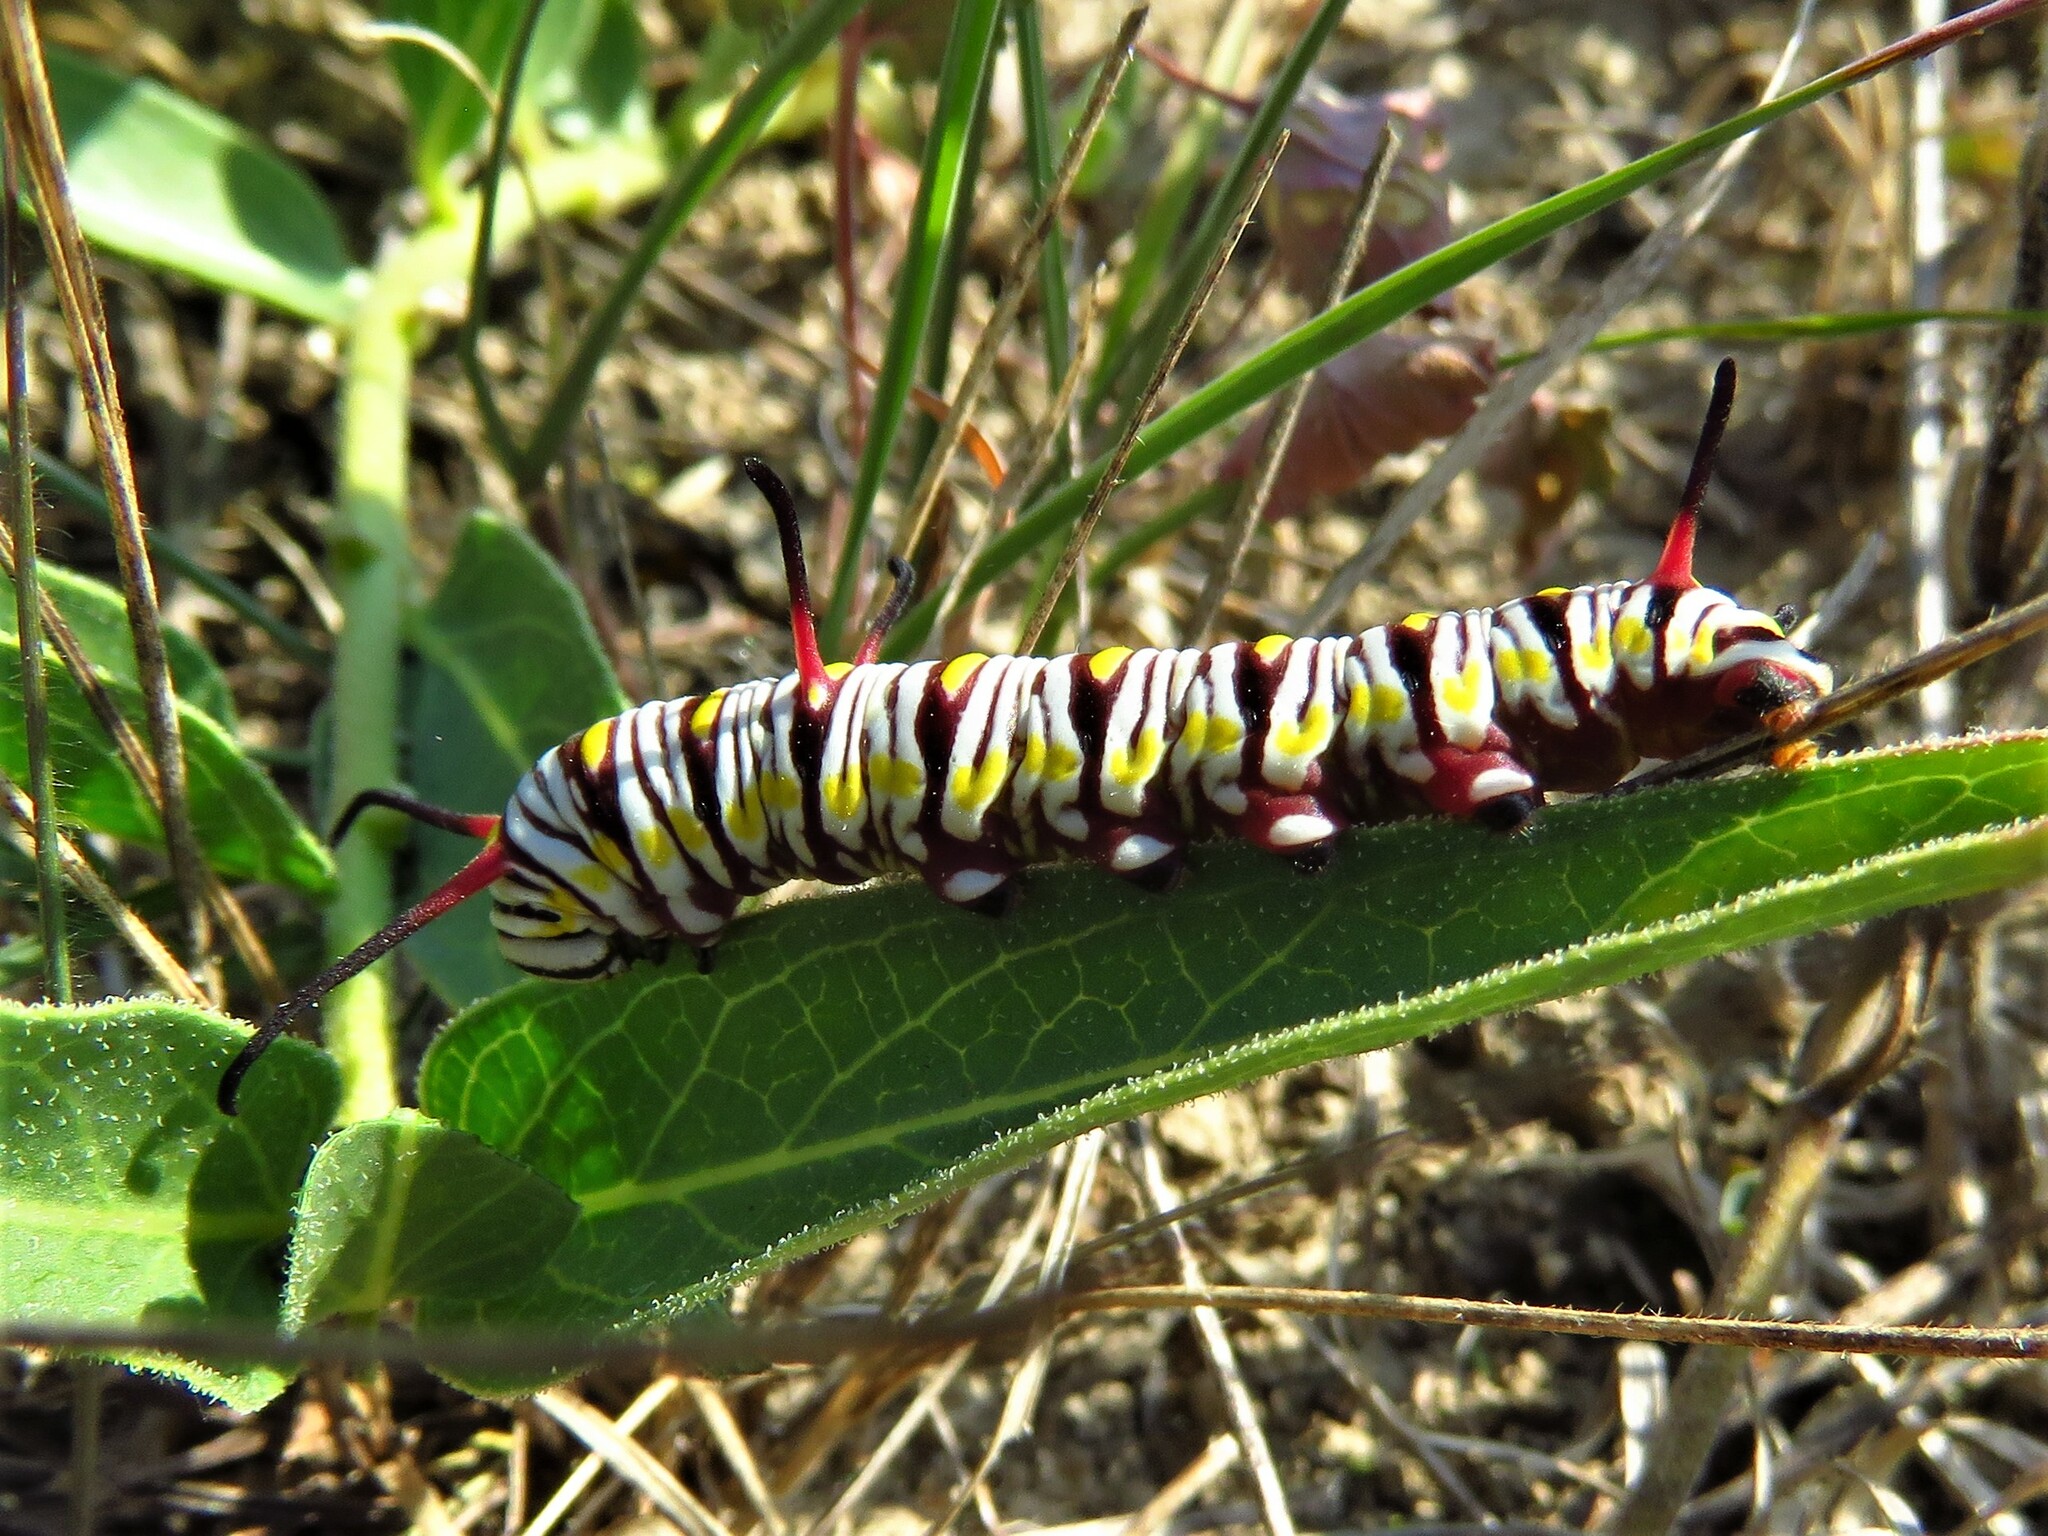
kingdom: Animalia
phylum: Arthropoda
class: Insecta
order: Lepidoptera
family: Nymphalidae
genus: Danaus
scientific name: Danaus gilippus
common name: Queen
